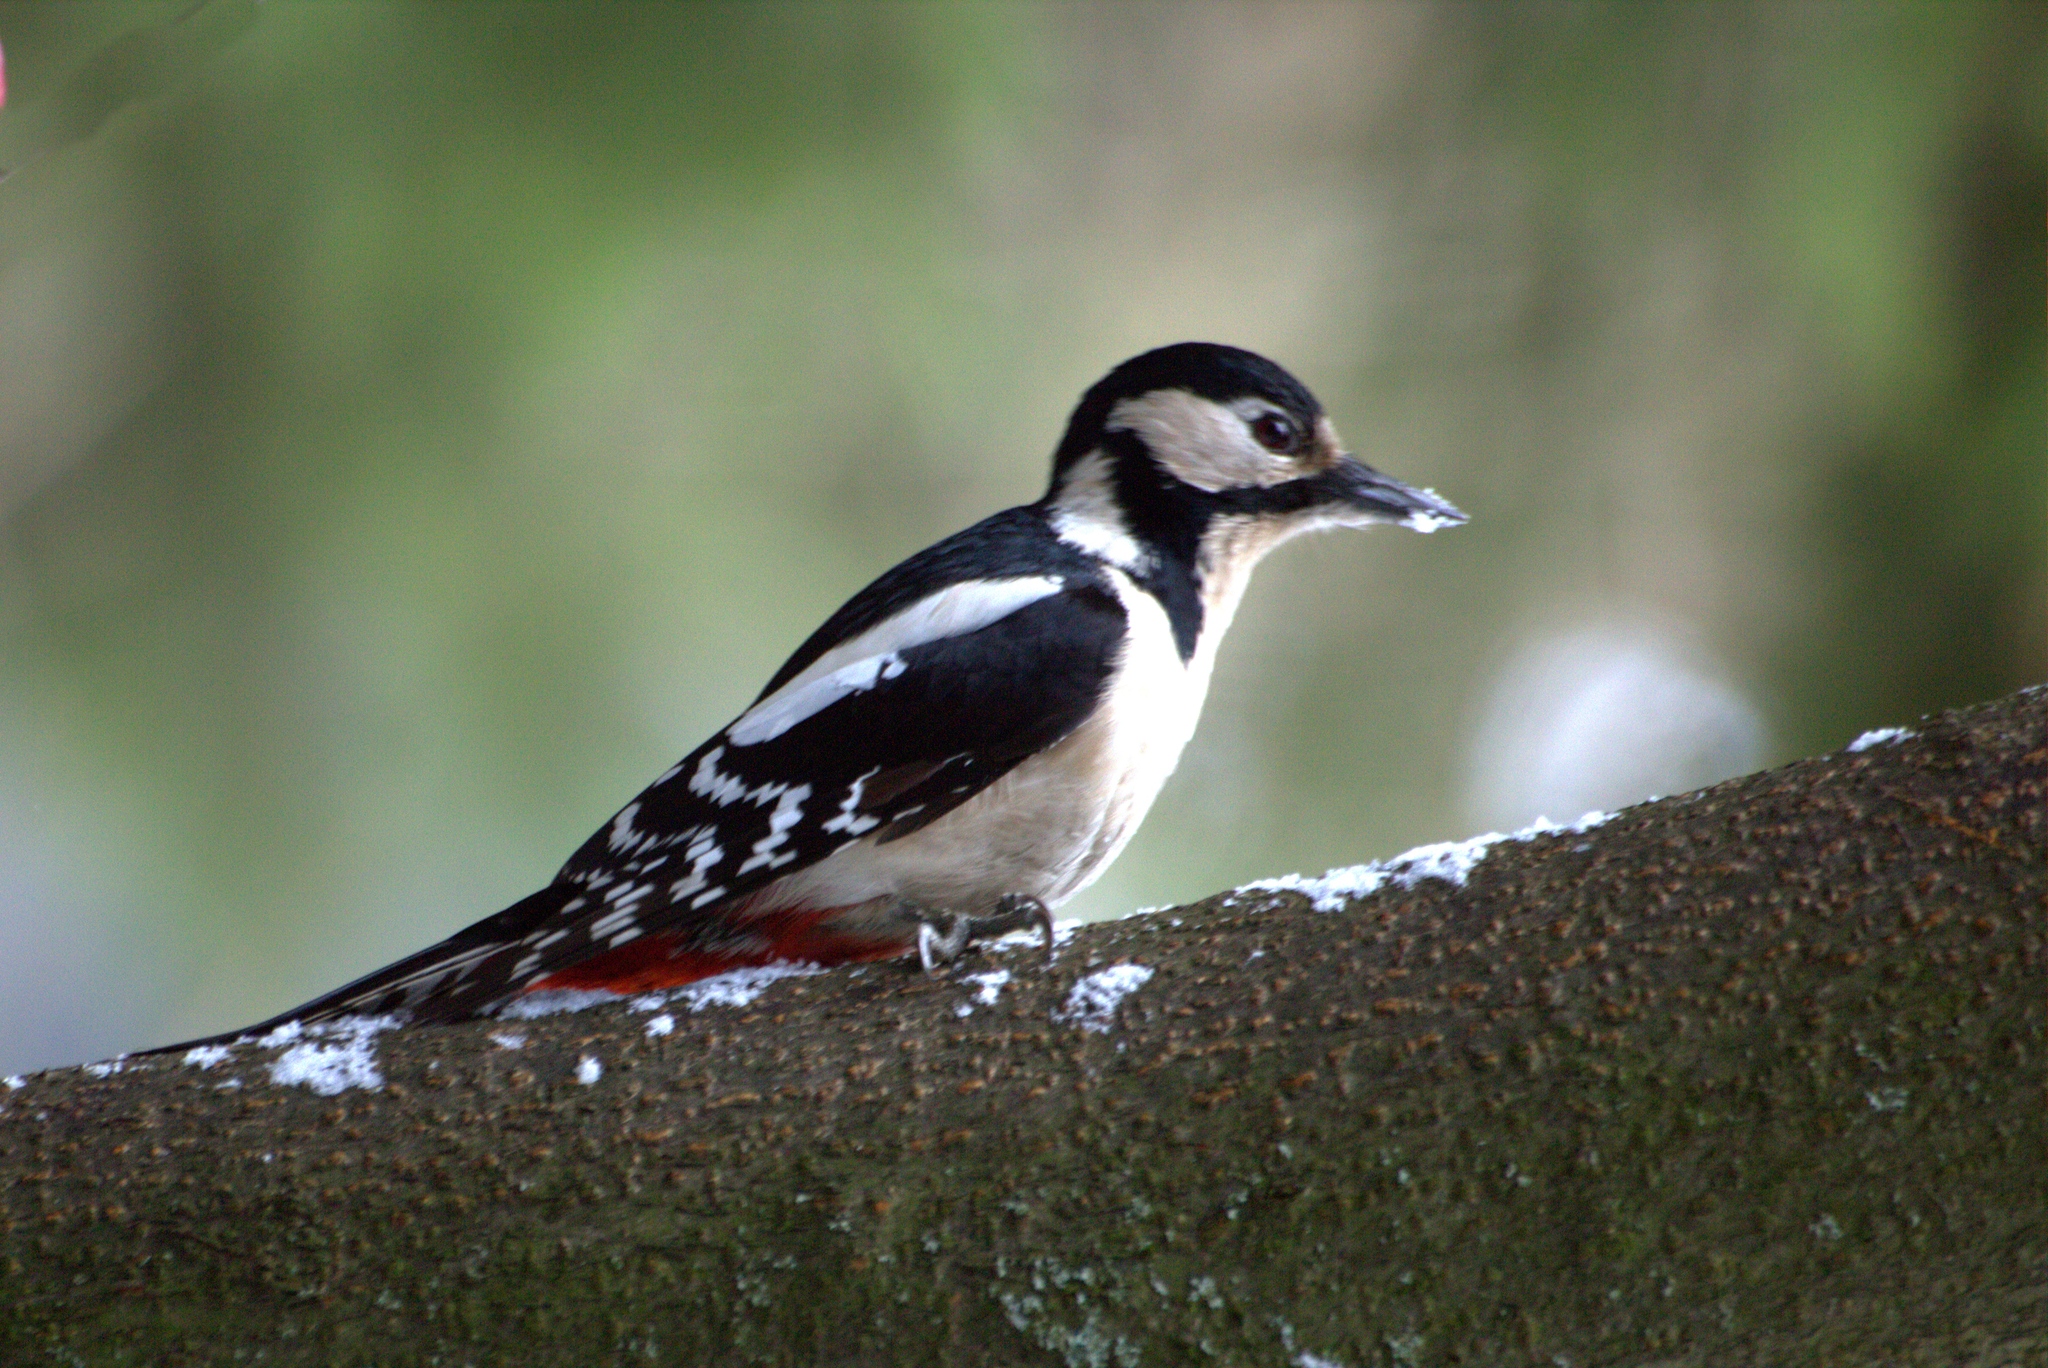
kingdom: Animalia
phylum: Chordata
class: Aves
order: Piciformes
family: Picidae
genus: Dendrocopos
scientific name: Dendrocopos major
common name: Great spotted woodpecker
